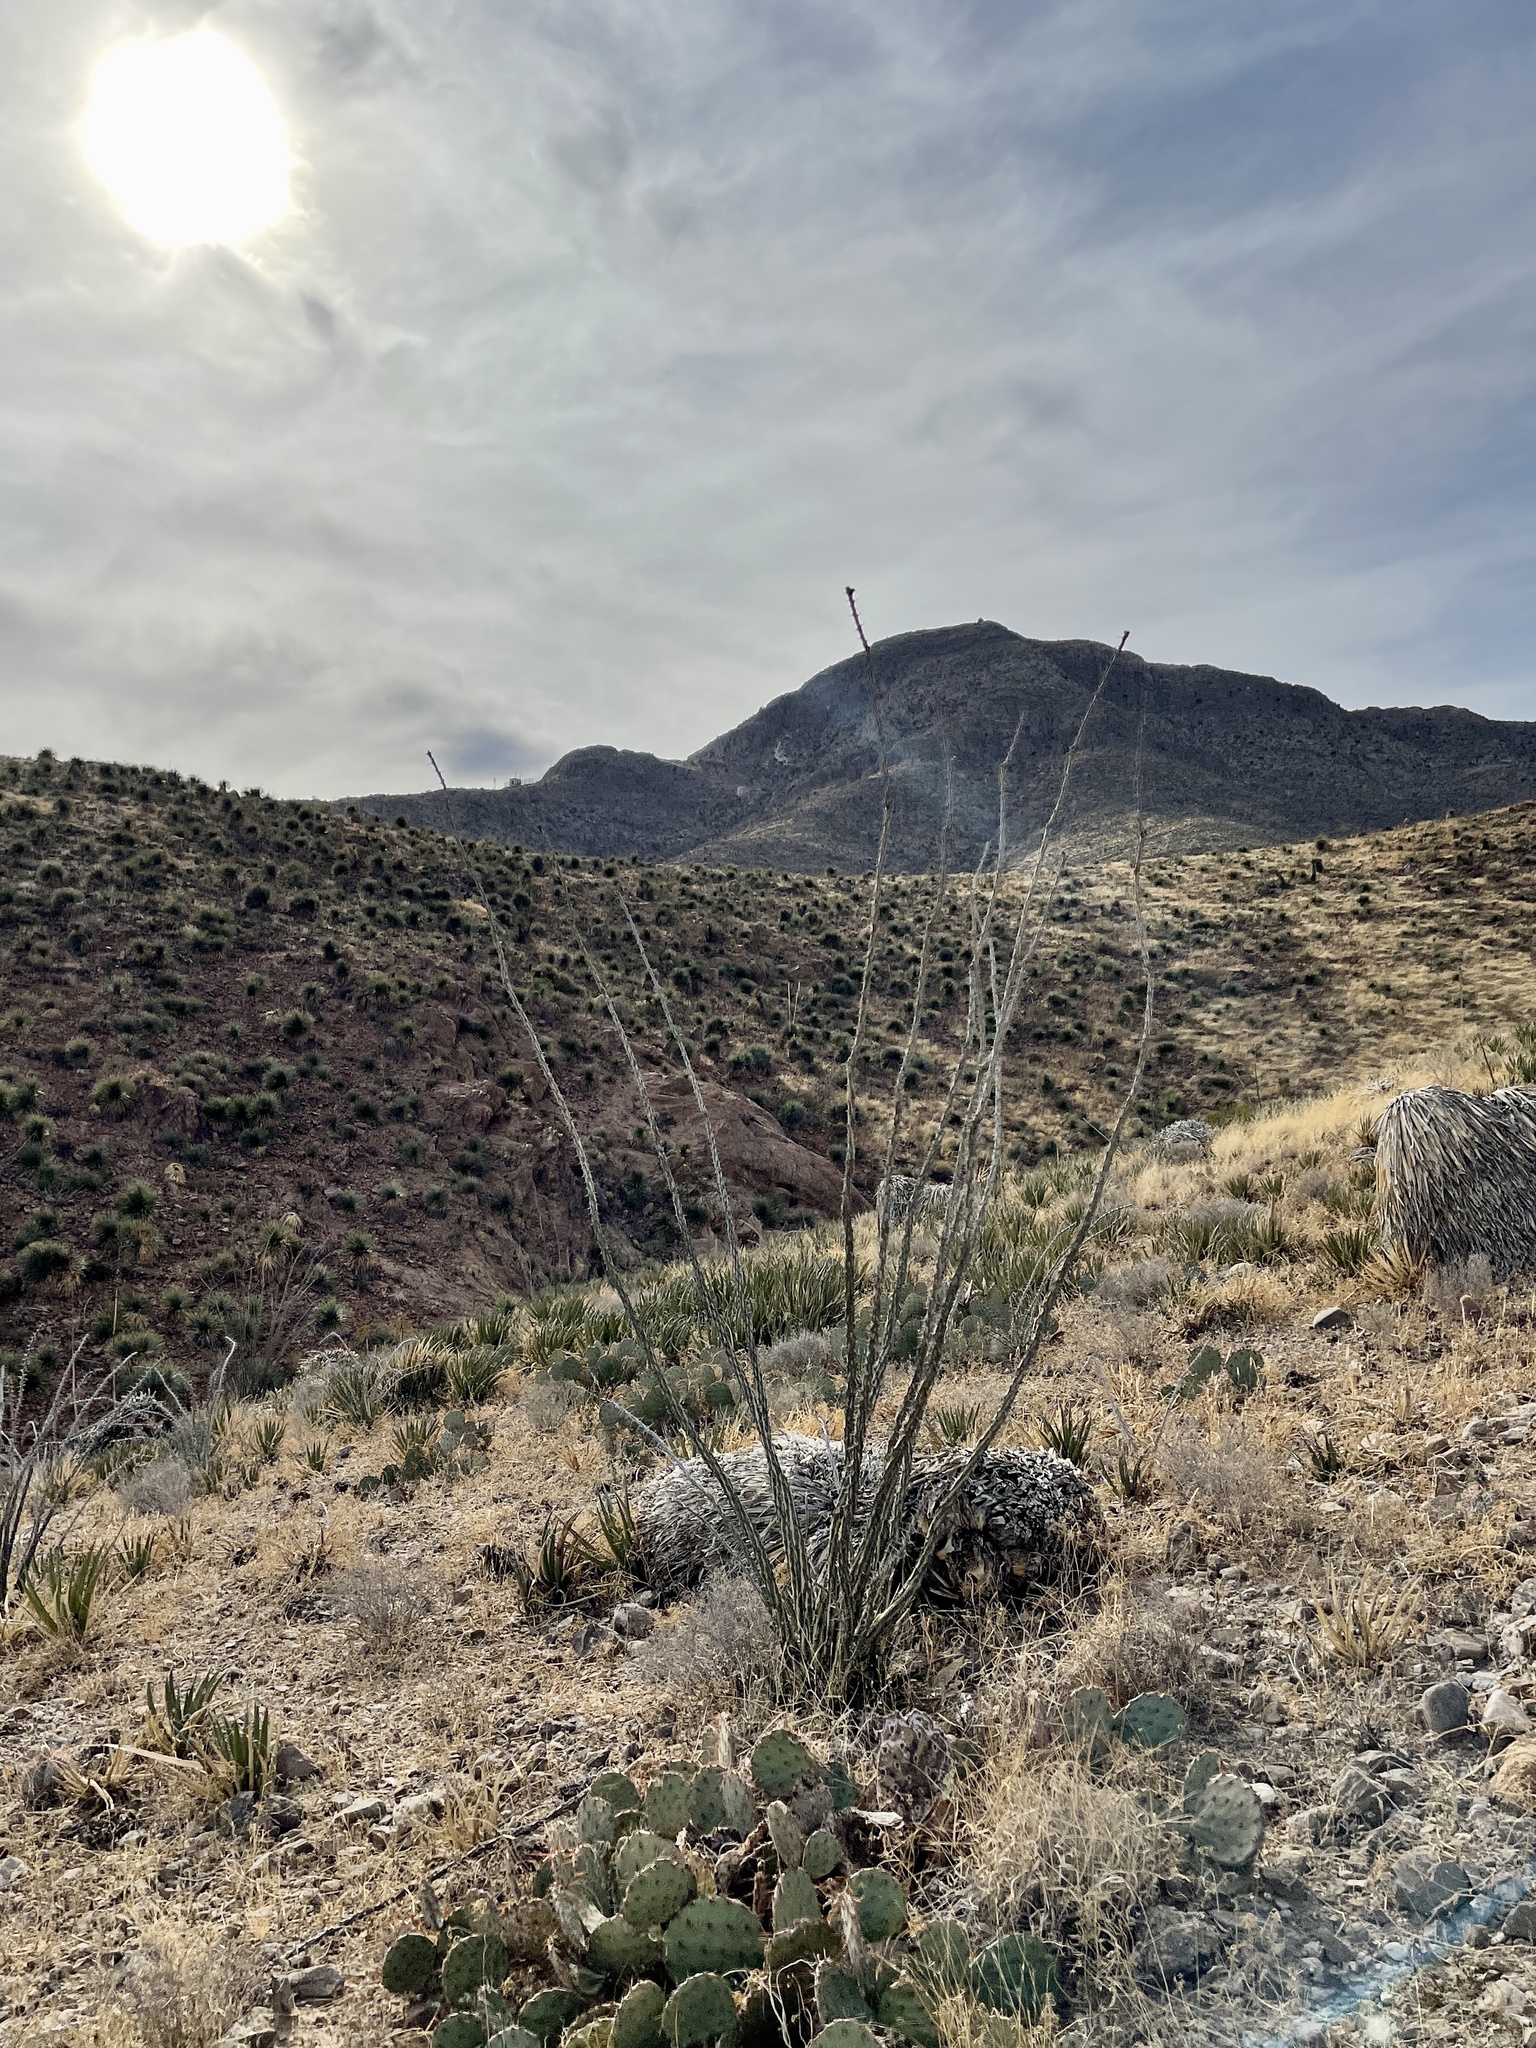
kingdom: Plantae
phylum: Tracheophyta
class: Magnoliopsida
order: Ericales
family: Fouquieriaceae
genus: Fouquieria
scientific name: Fouquieria splendens
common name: Vine-cactus
